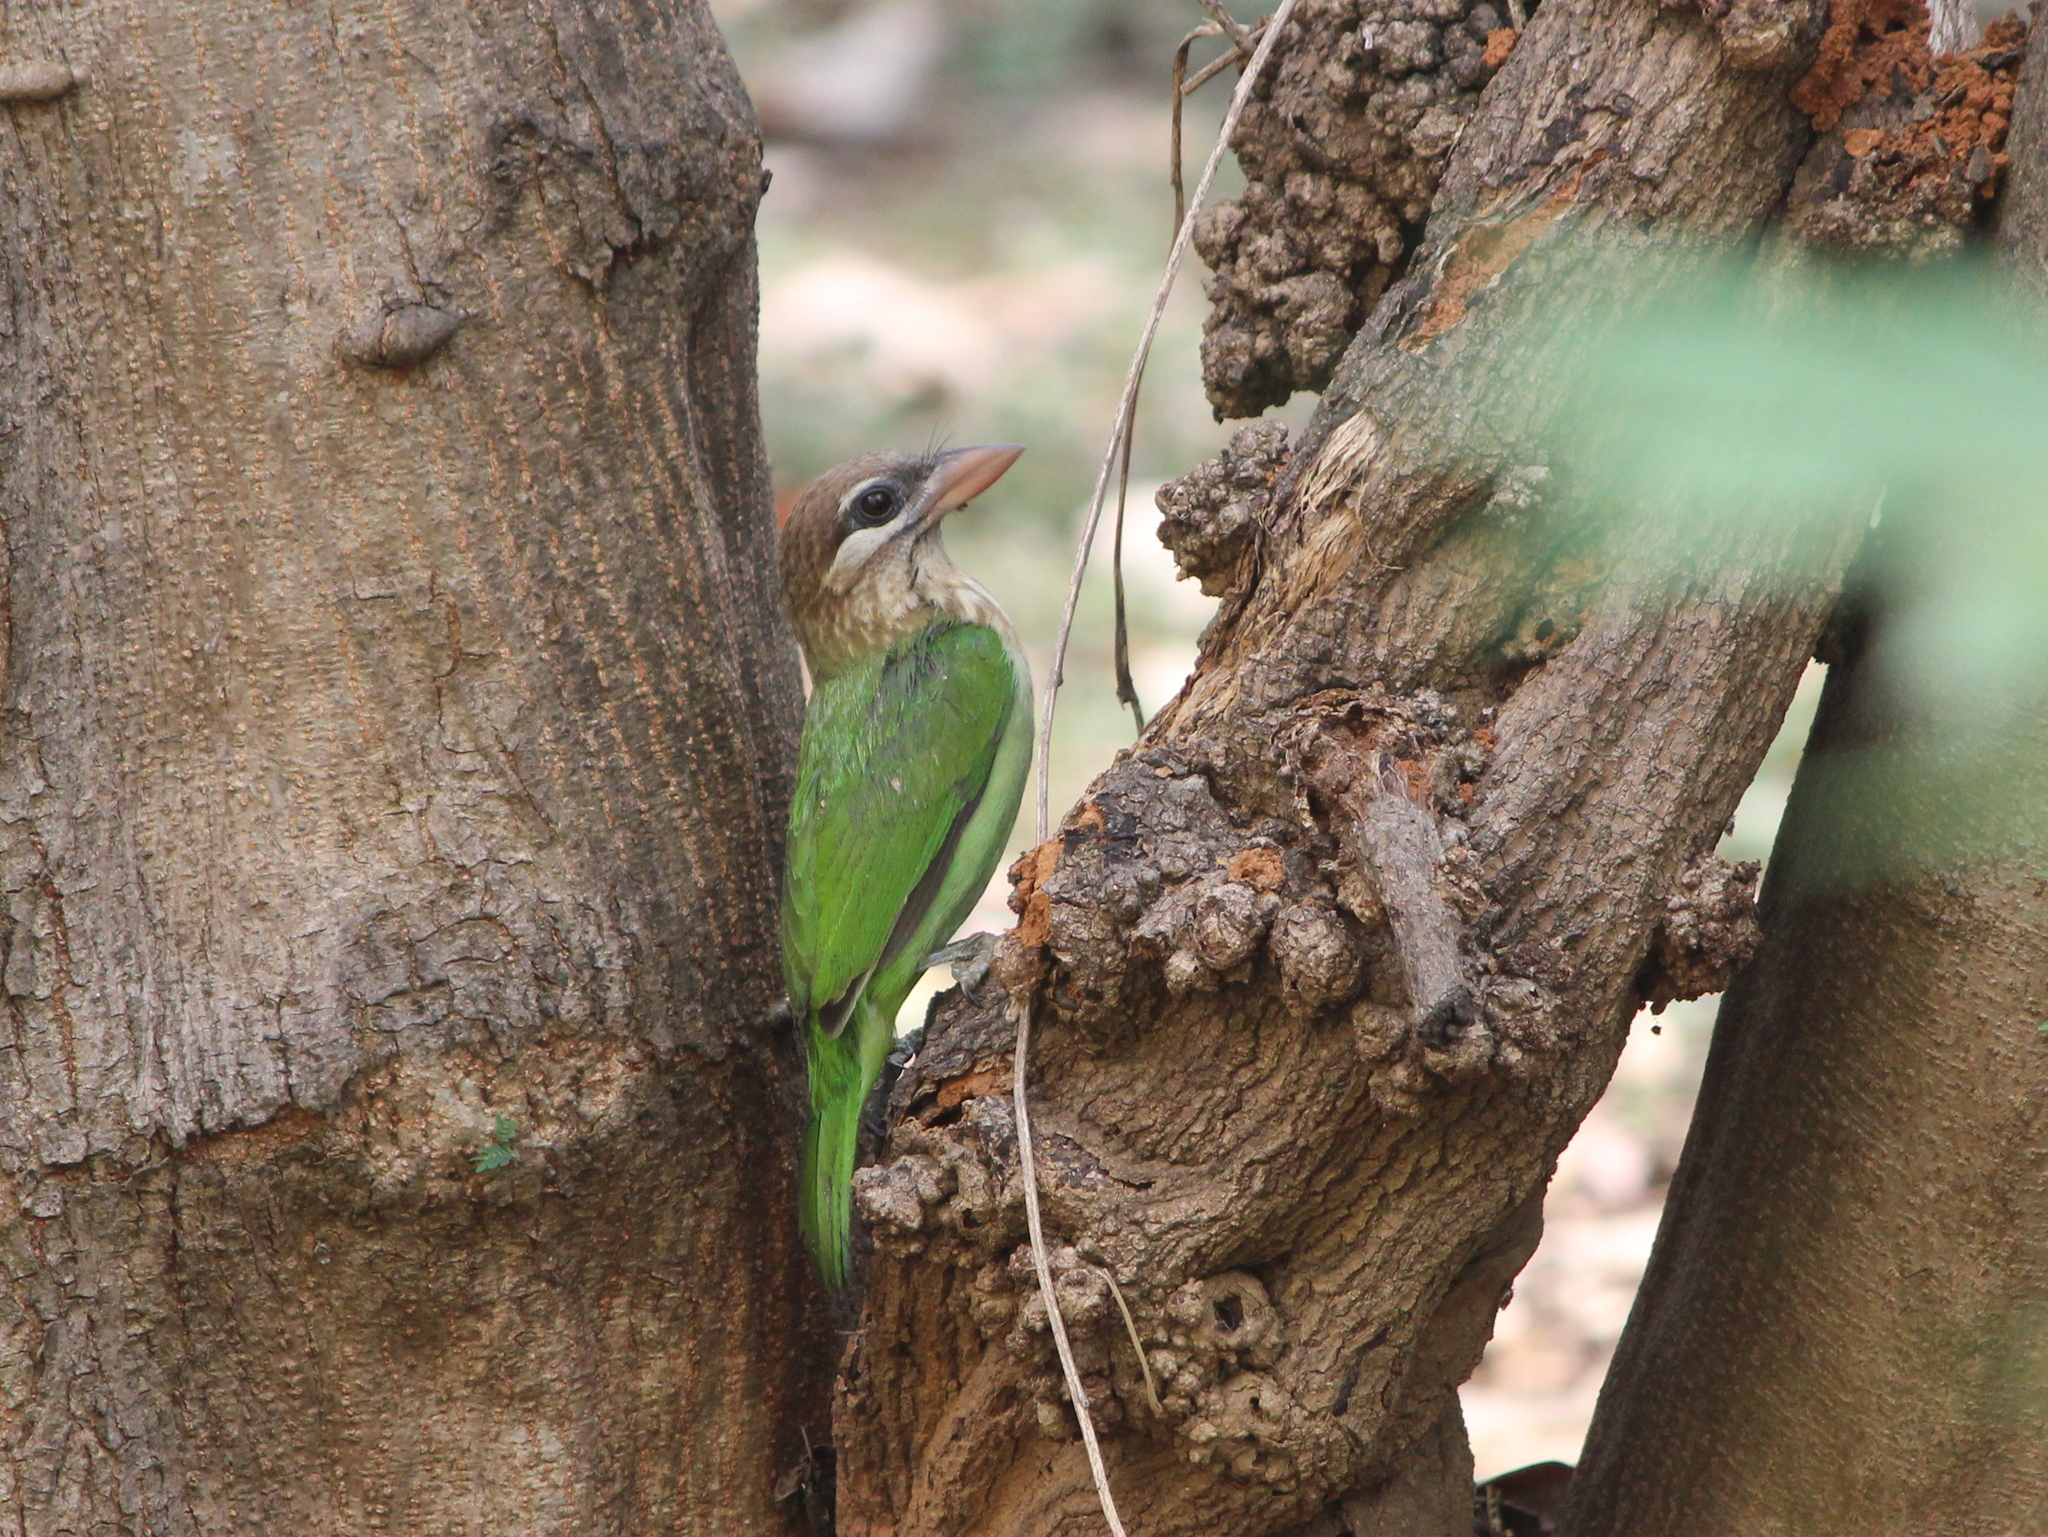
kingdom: Animalia
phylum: Chordata
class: Aves
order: Piciformes
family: Megalaimidae
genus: Psilopogon
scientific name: Psilopogon viridis
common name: White-cheeked barbet
